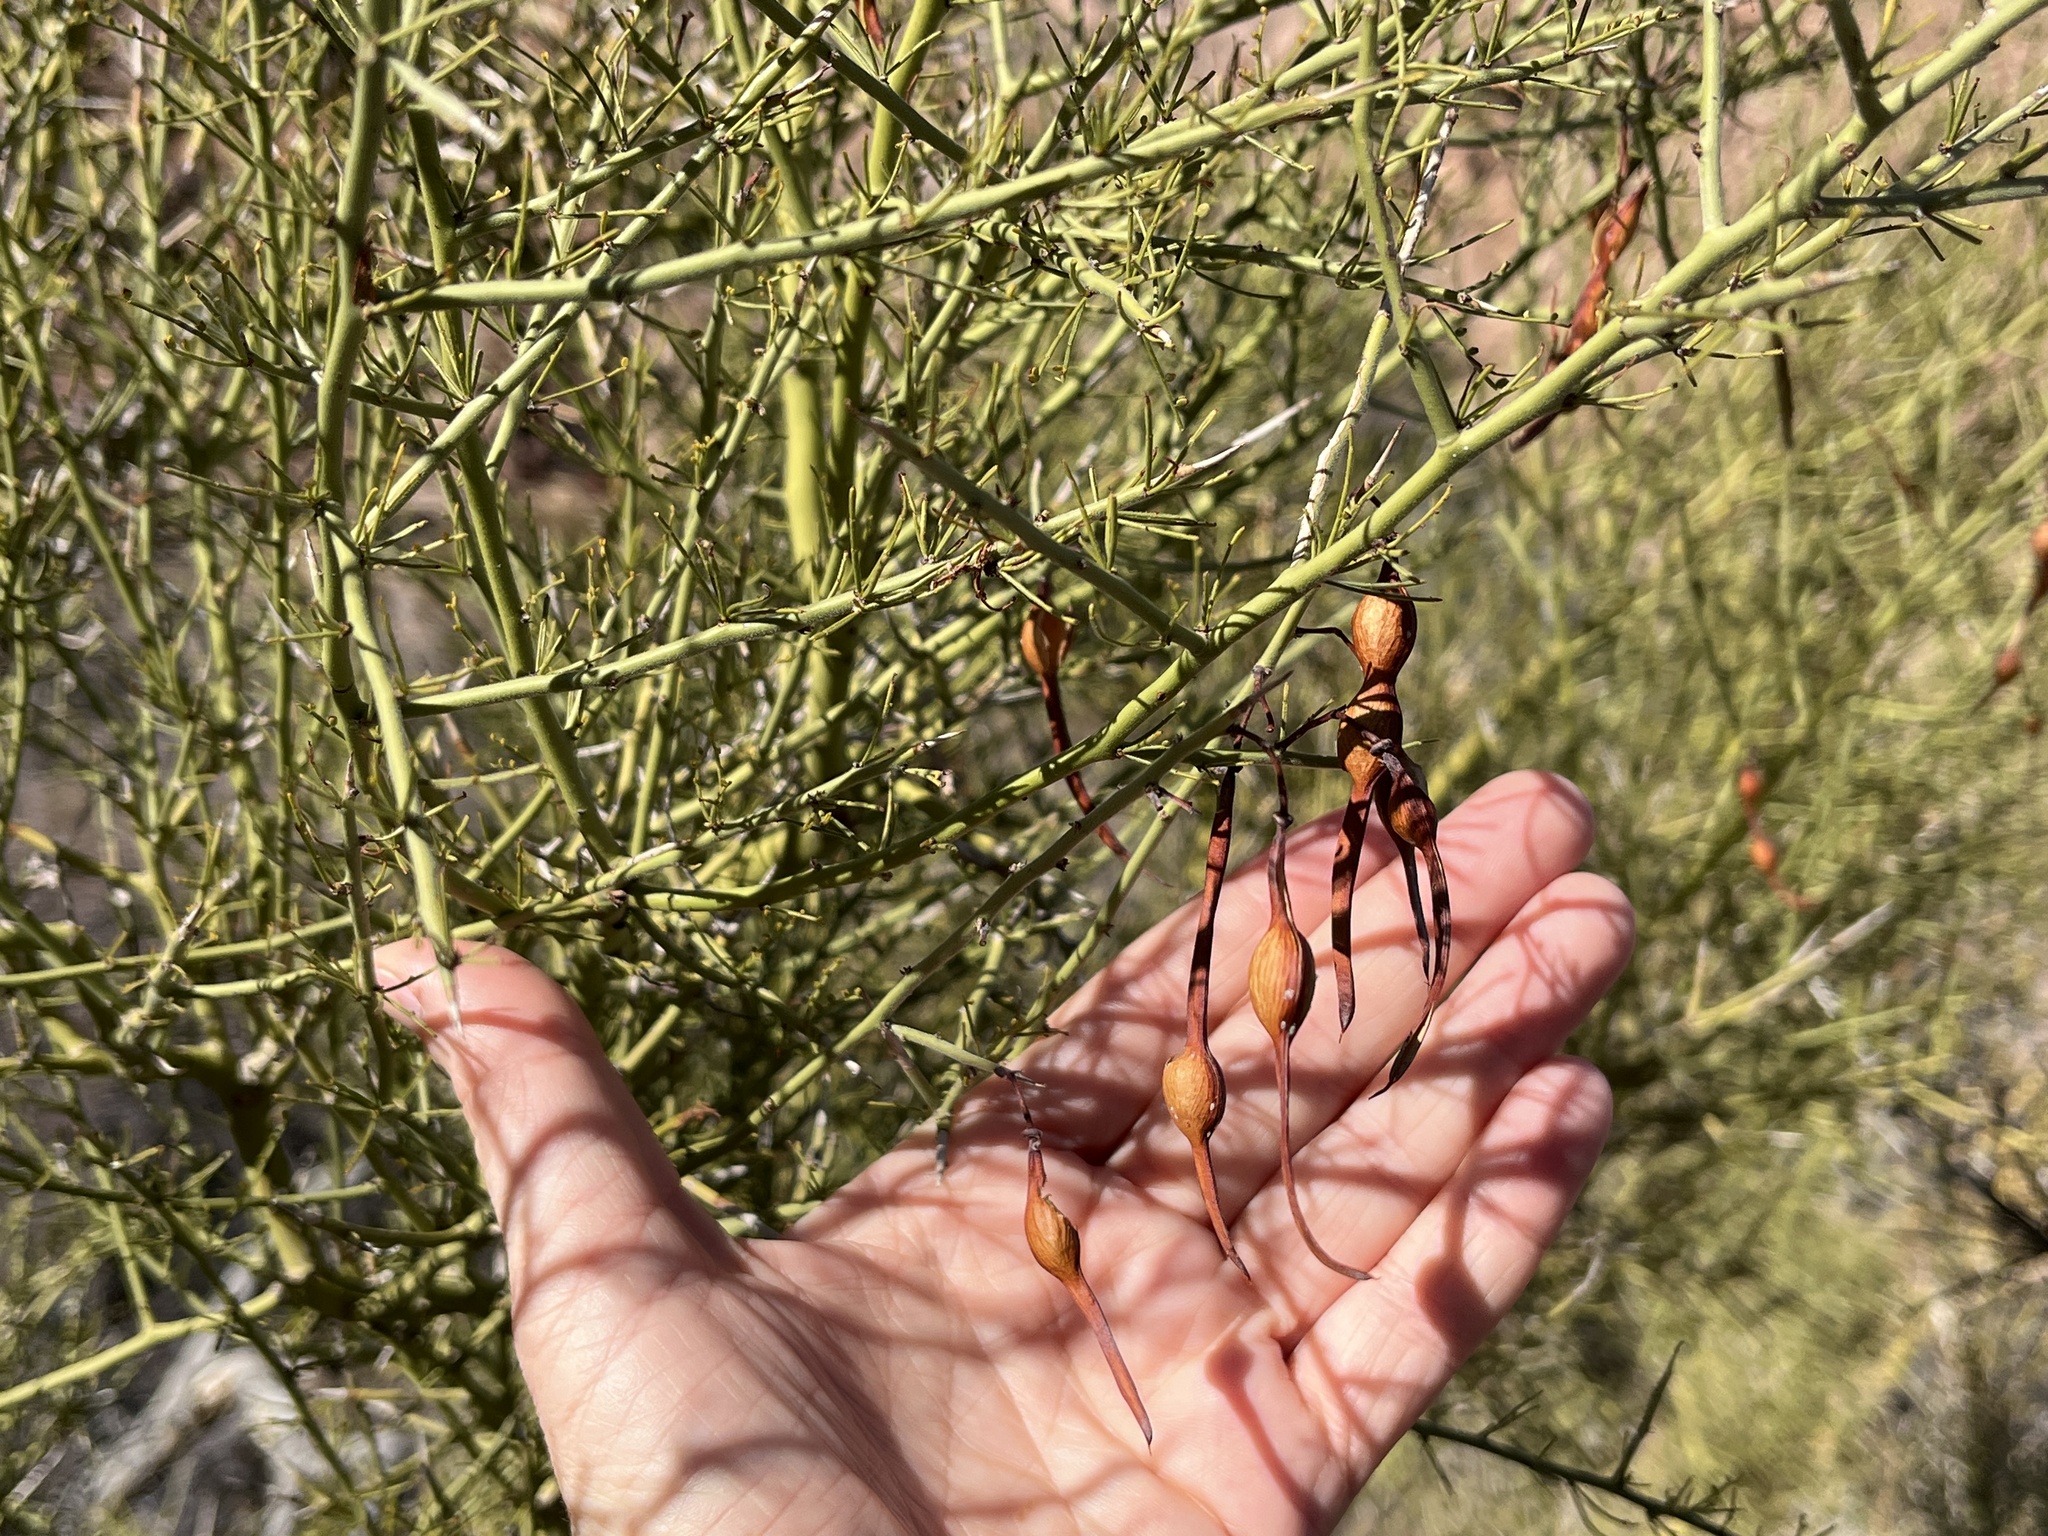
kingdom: Plantae
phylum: Tracheophyta
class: Magnoliopsida
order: Fabales
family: Fabaceae
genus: Parkinsonia
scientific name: Parkinsonia microphylla
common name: Yellow paloverde
